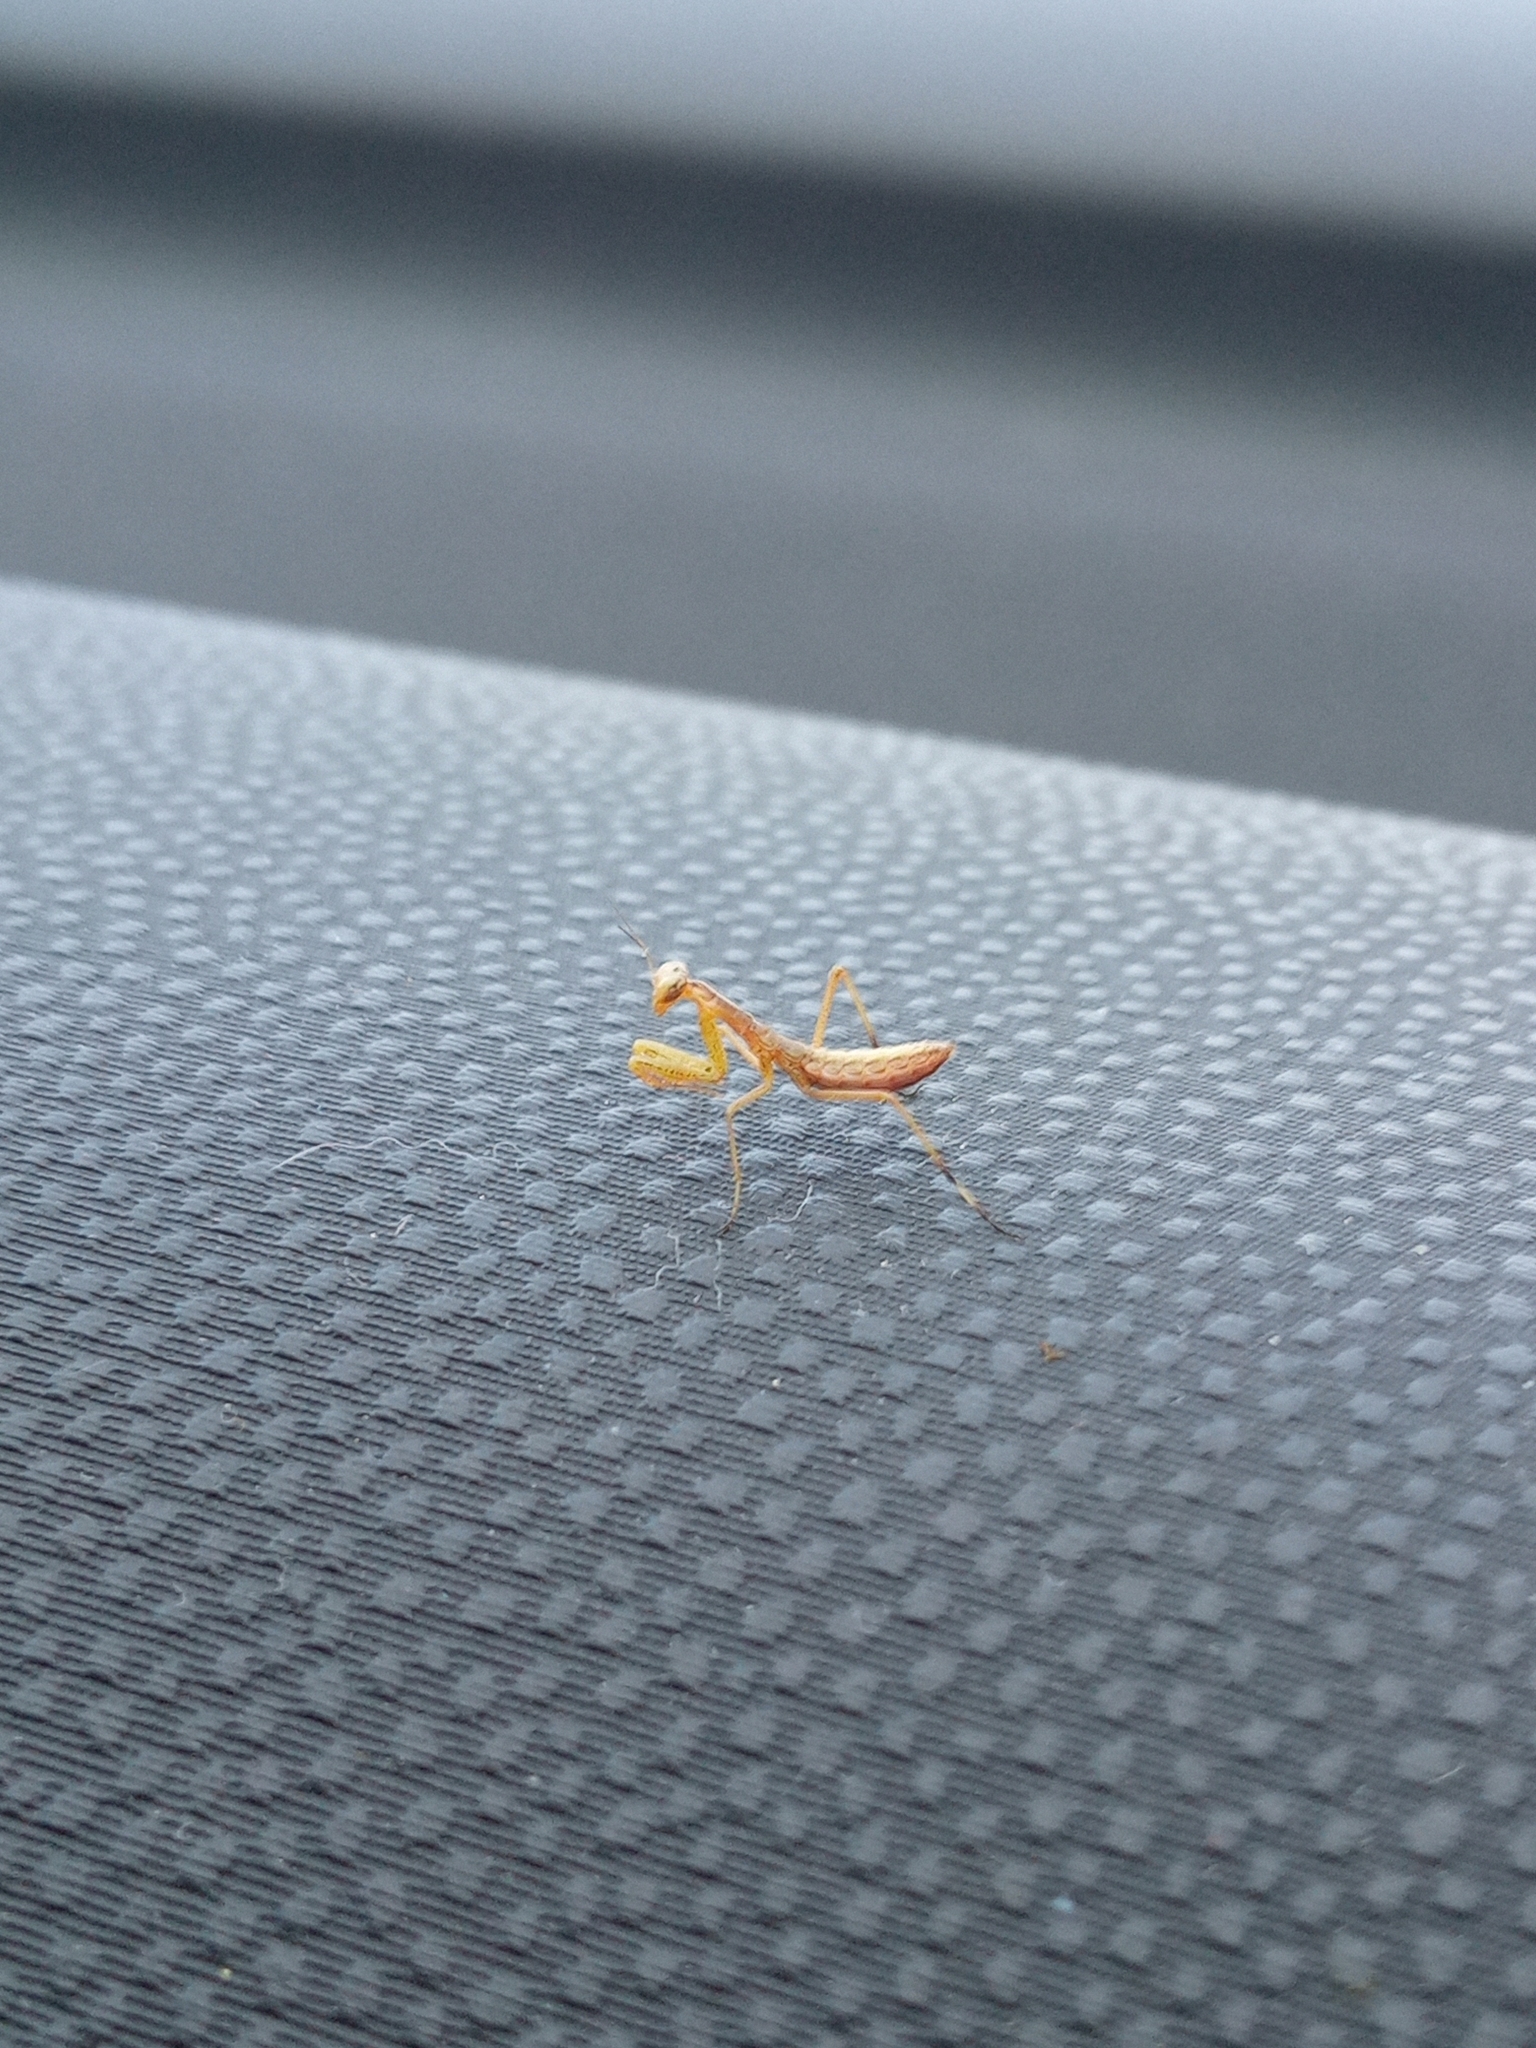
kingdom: Animalia
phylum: Arthropoda
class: Insecta
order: Mantodea
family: Mantidae
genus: Mantis
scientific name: Mantis religiosa
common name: Praying mantis
